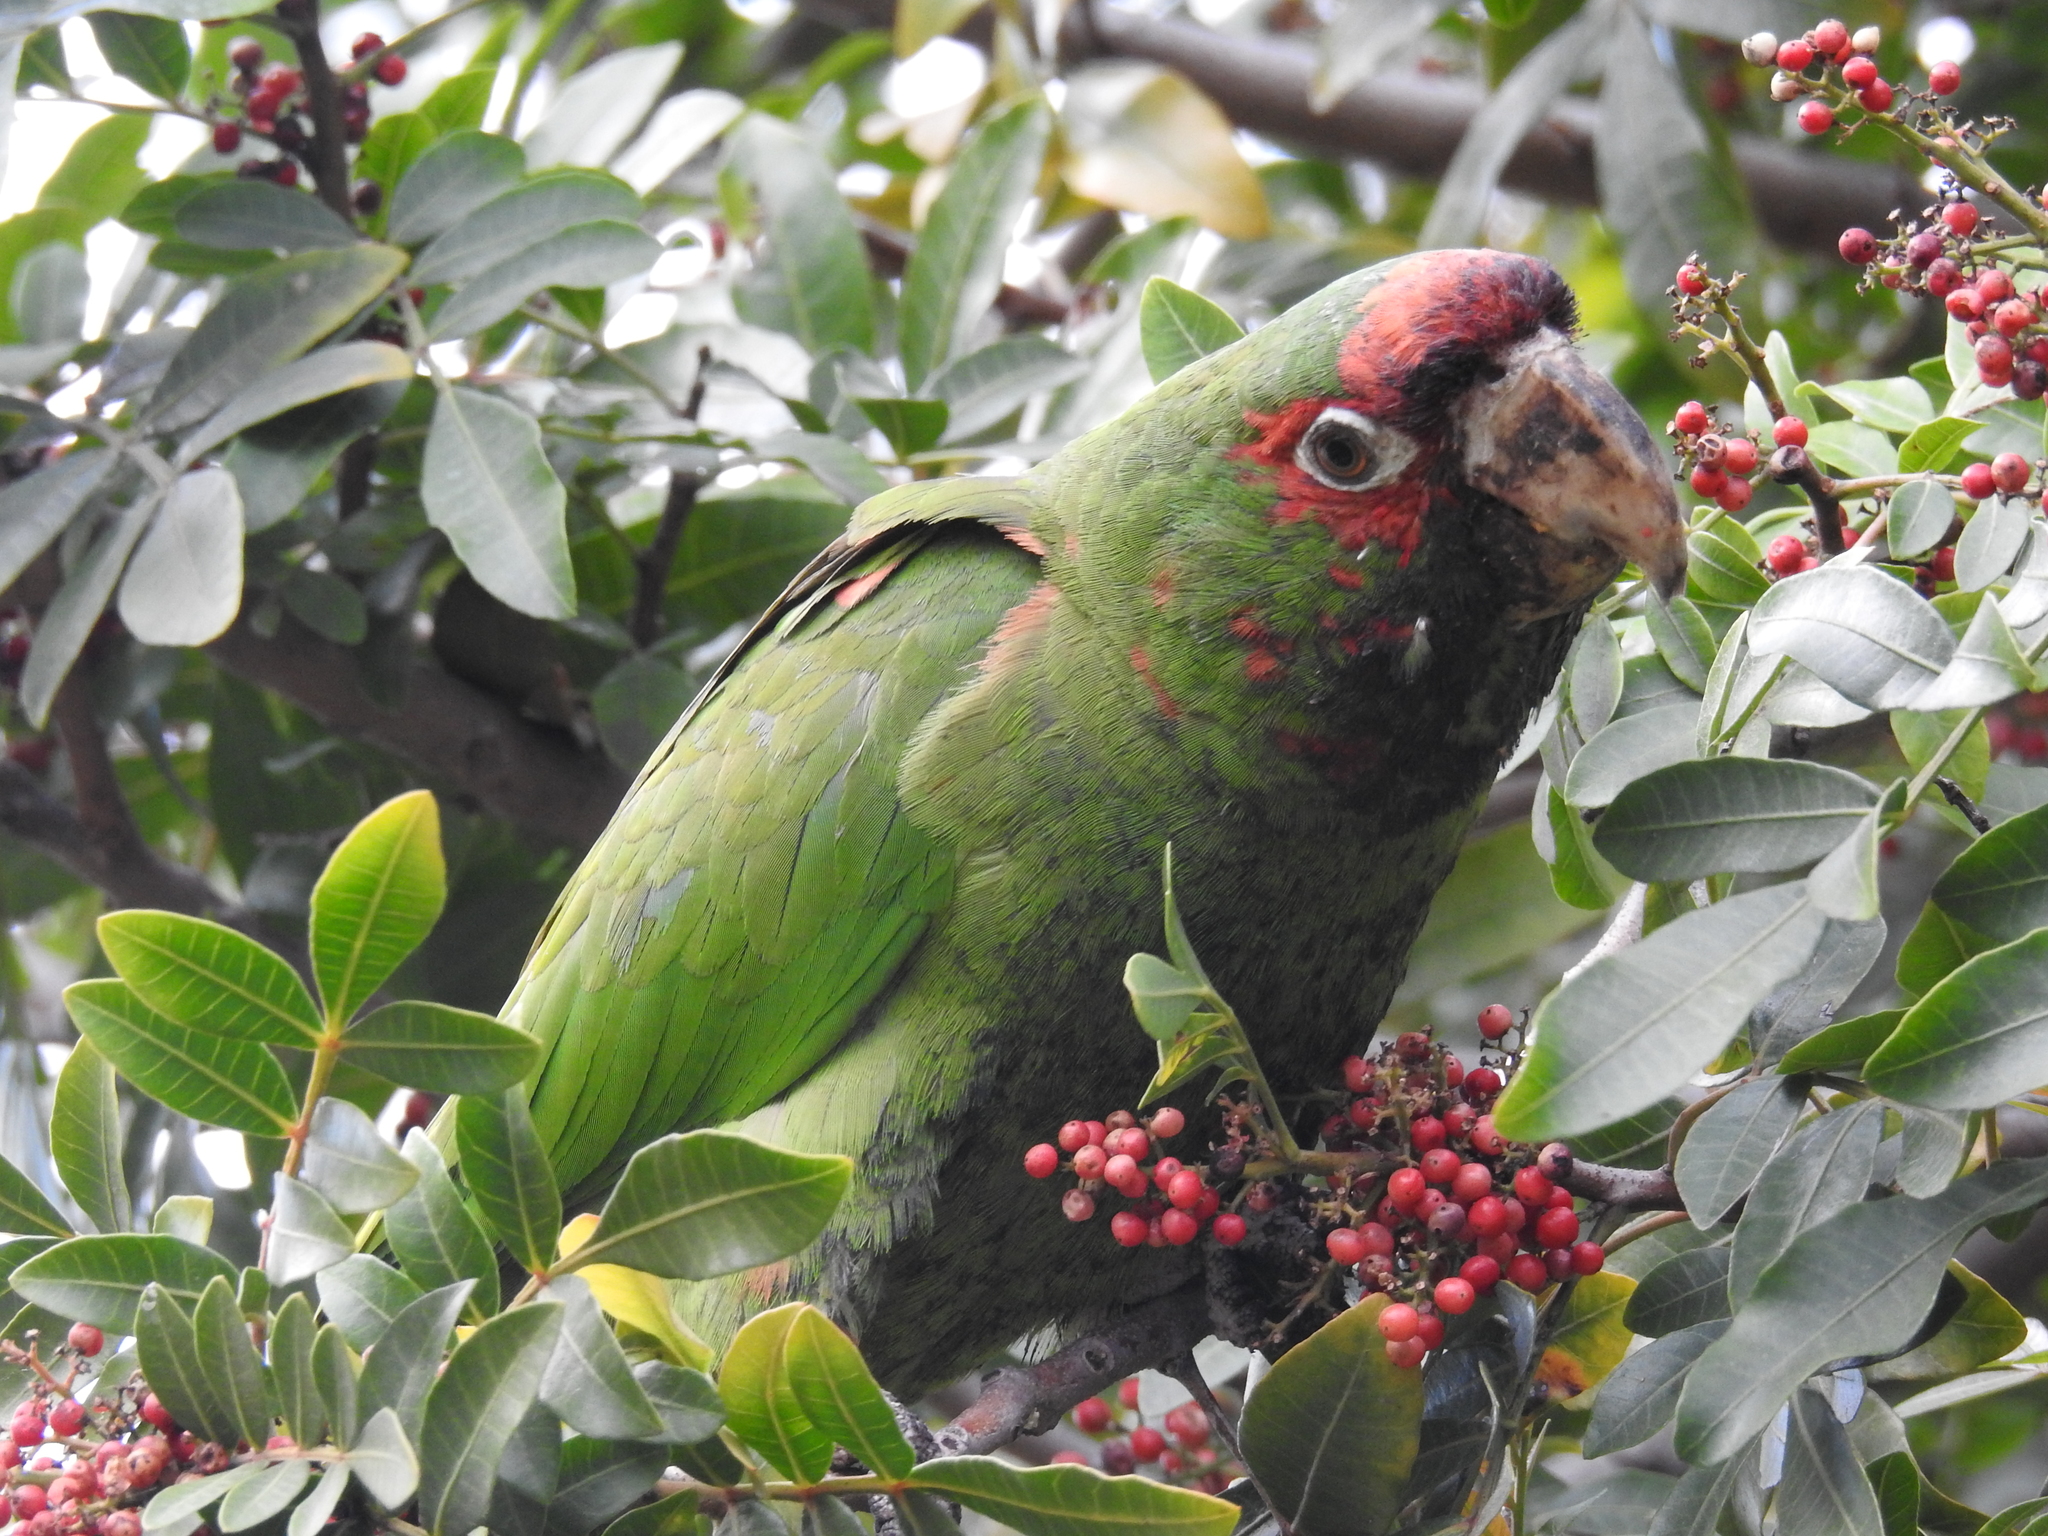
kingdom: Animalia
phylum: Chordata
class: Aves
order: Psittaciformes
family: Psittacidae
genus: Aratinga
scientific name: Aratinga mitrata
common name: Mitred parakeet
